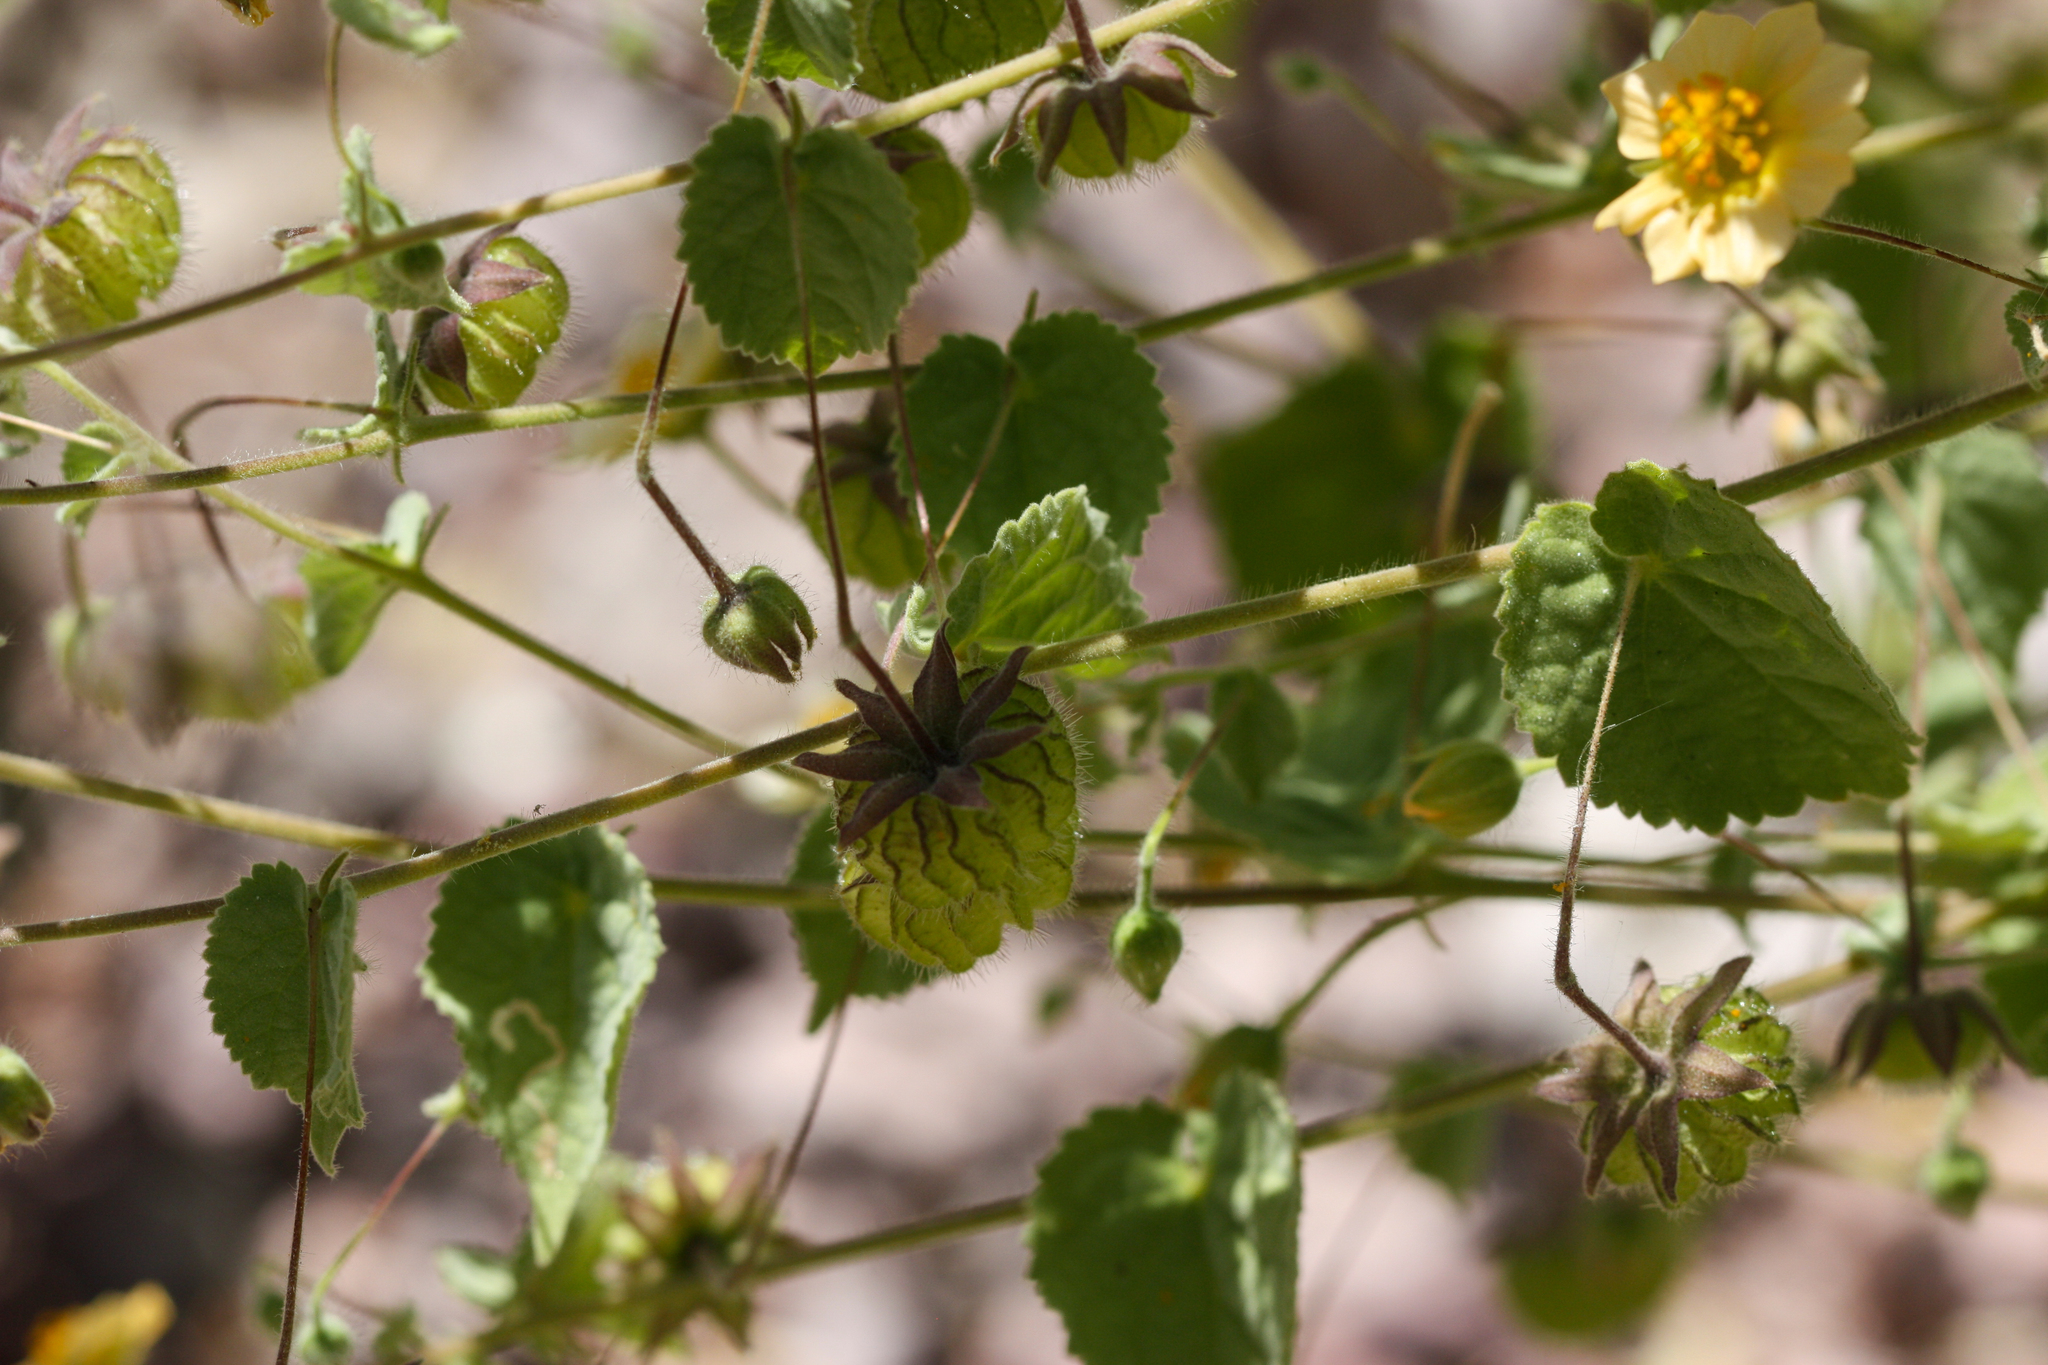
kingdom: Plantae
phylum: Tracheophyta
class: Magnoliopsida
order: Malvales
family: Malvaceae
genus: Herissantia
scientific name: Herissantia crispa
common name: Bladdermallow
